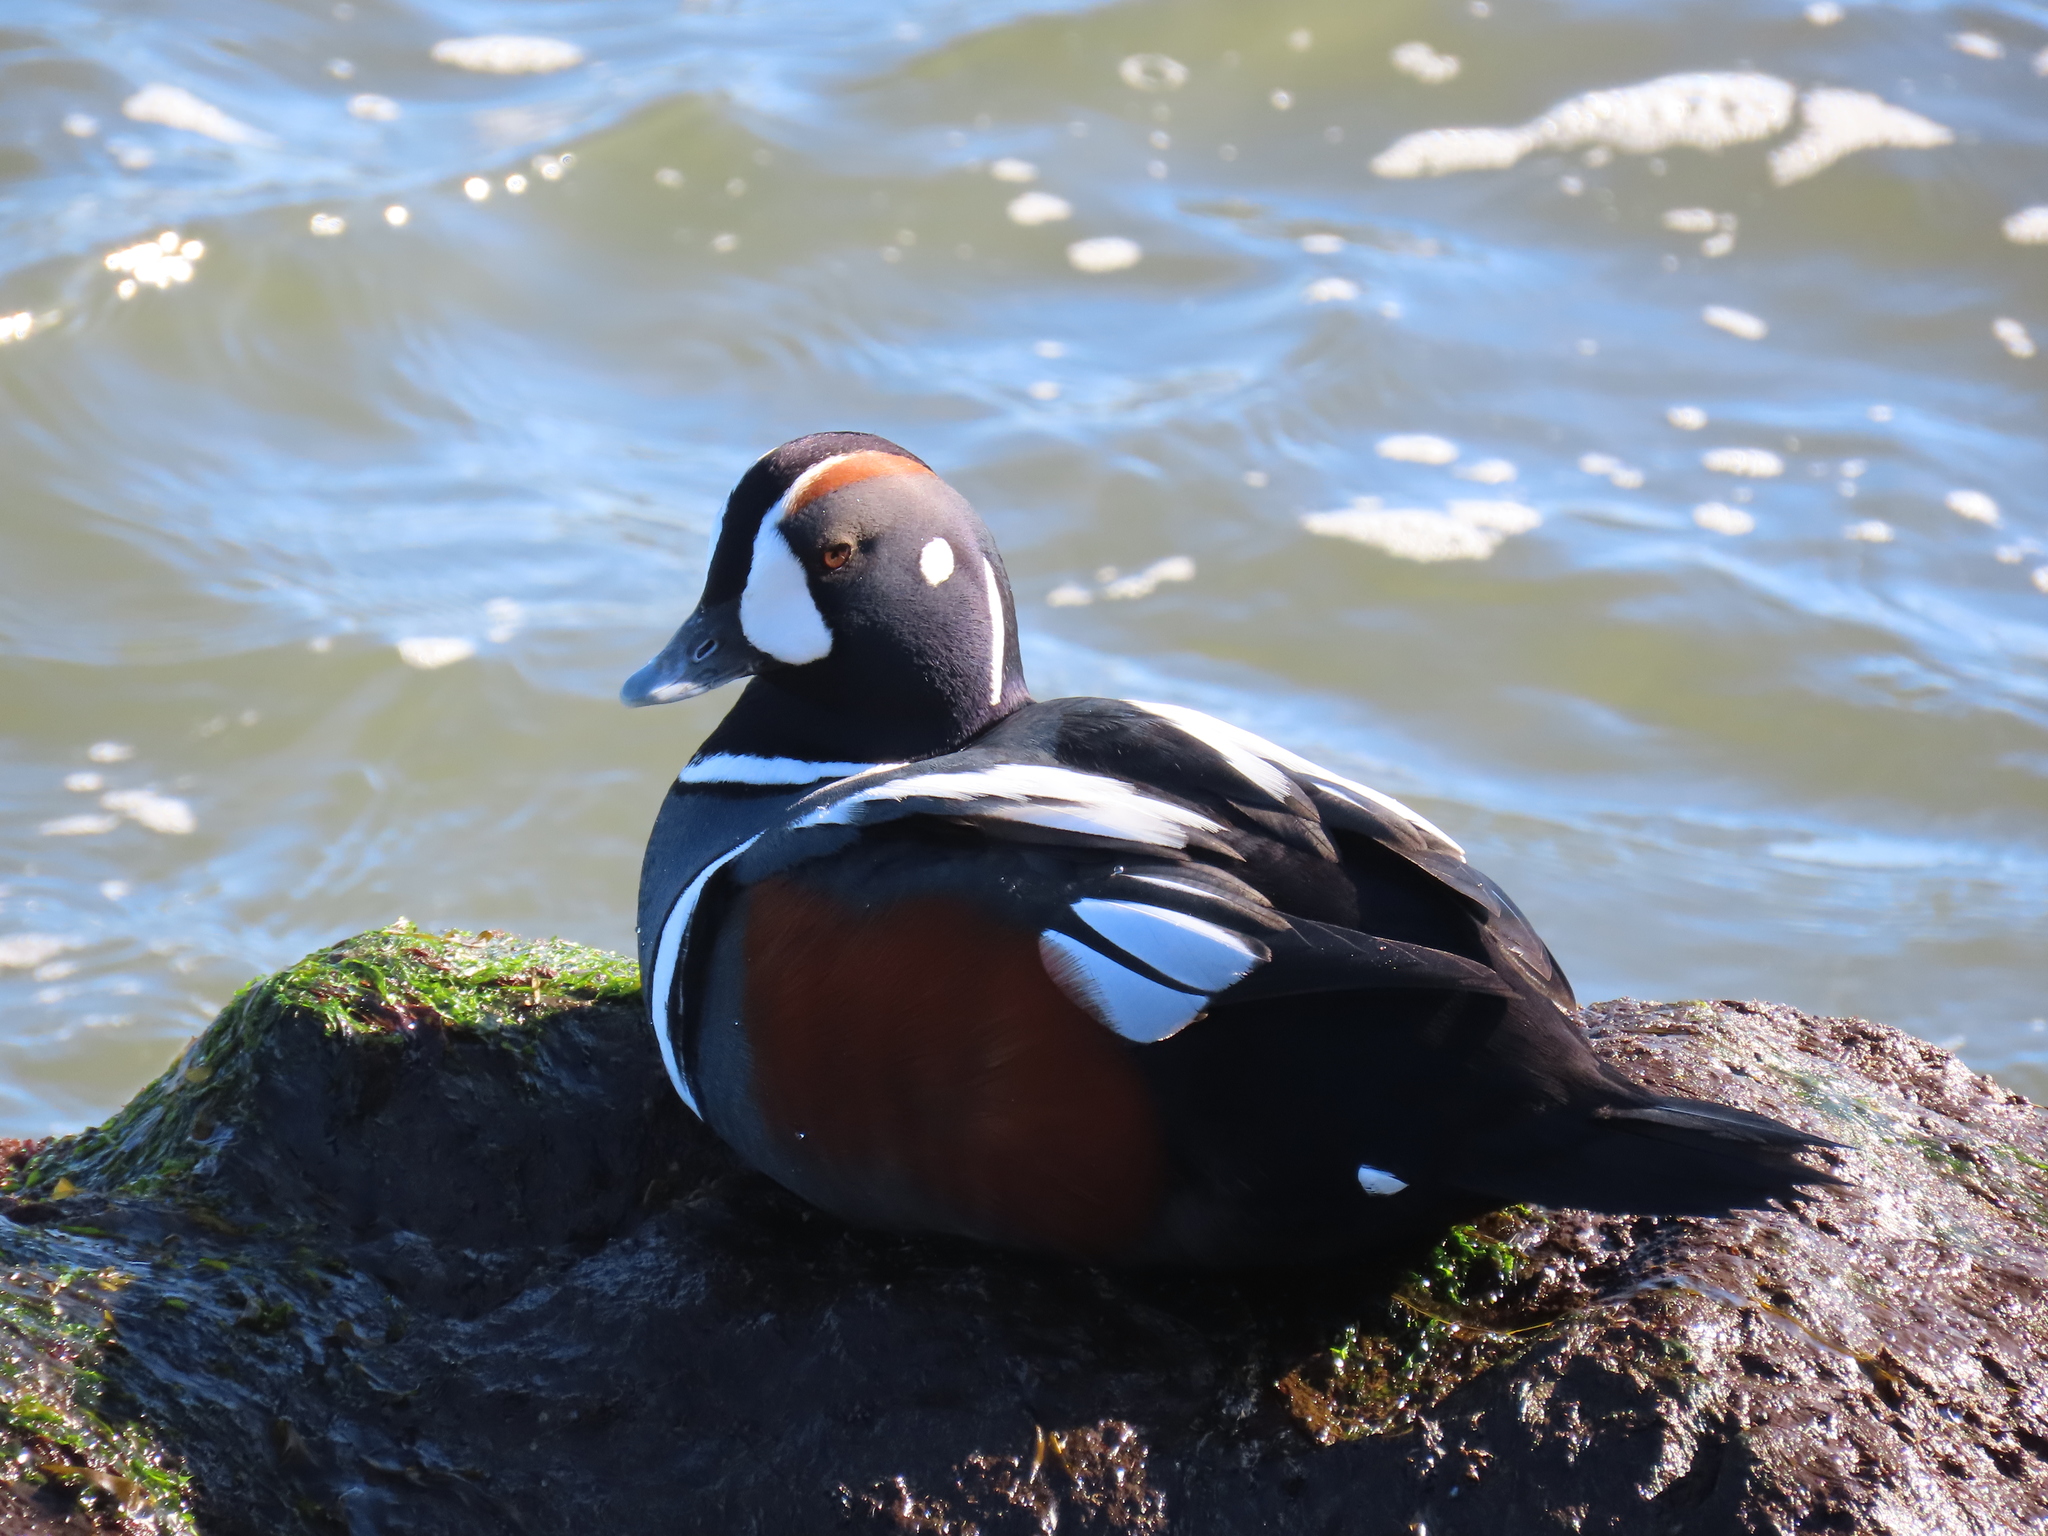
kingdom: Animalia
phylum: Chordata
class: Aves
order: Anseriformes
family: Anatidae
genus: Histrionicus
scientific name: Histrionicus histrionicus
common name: Harlequin duck
